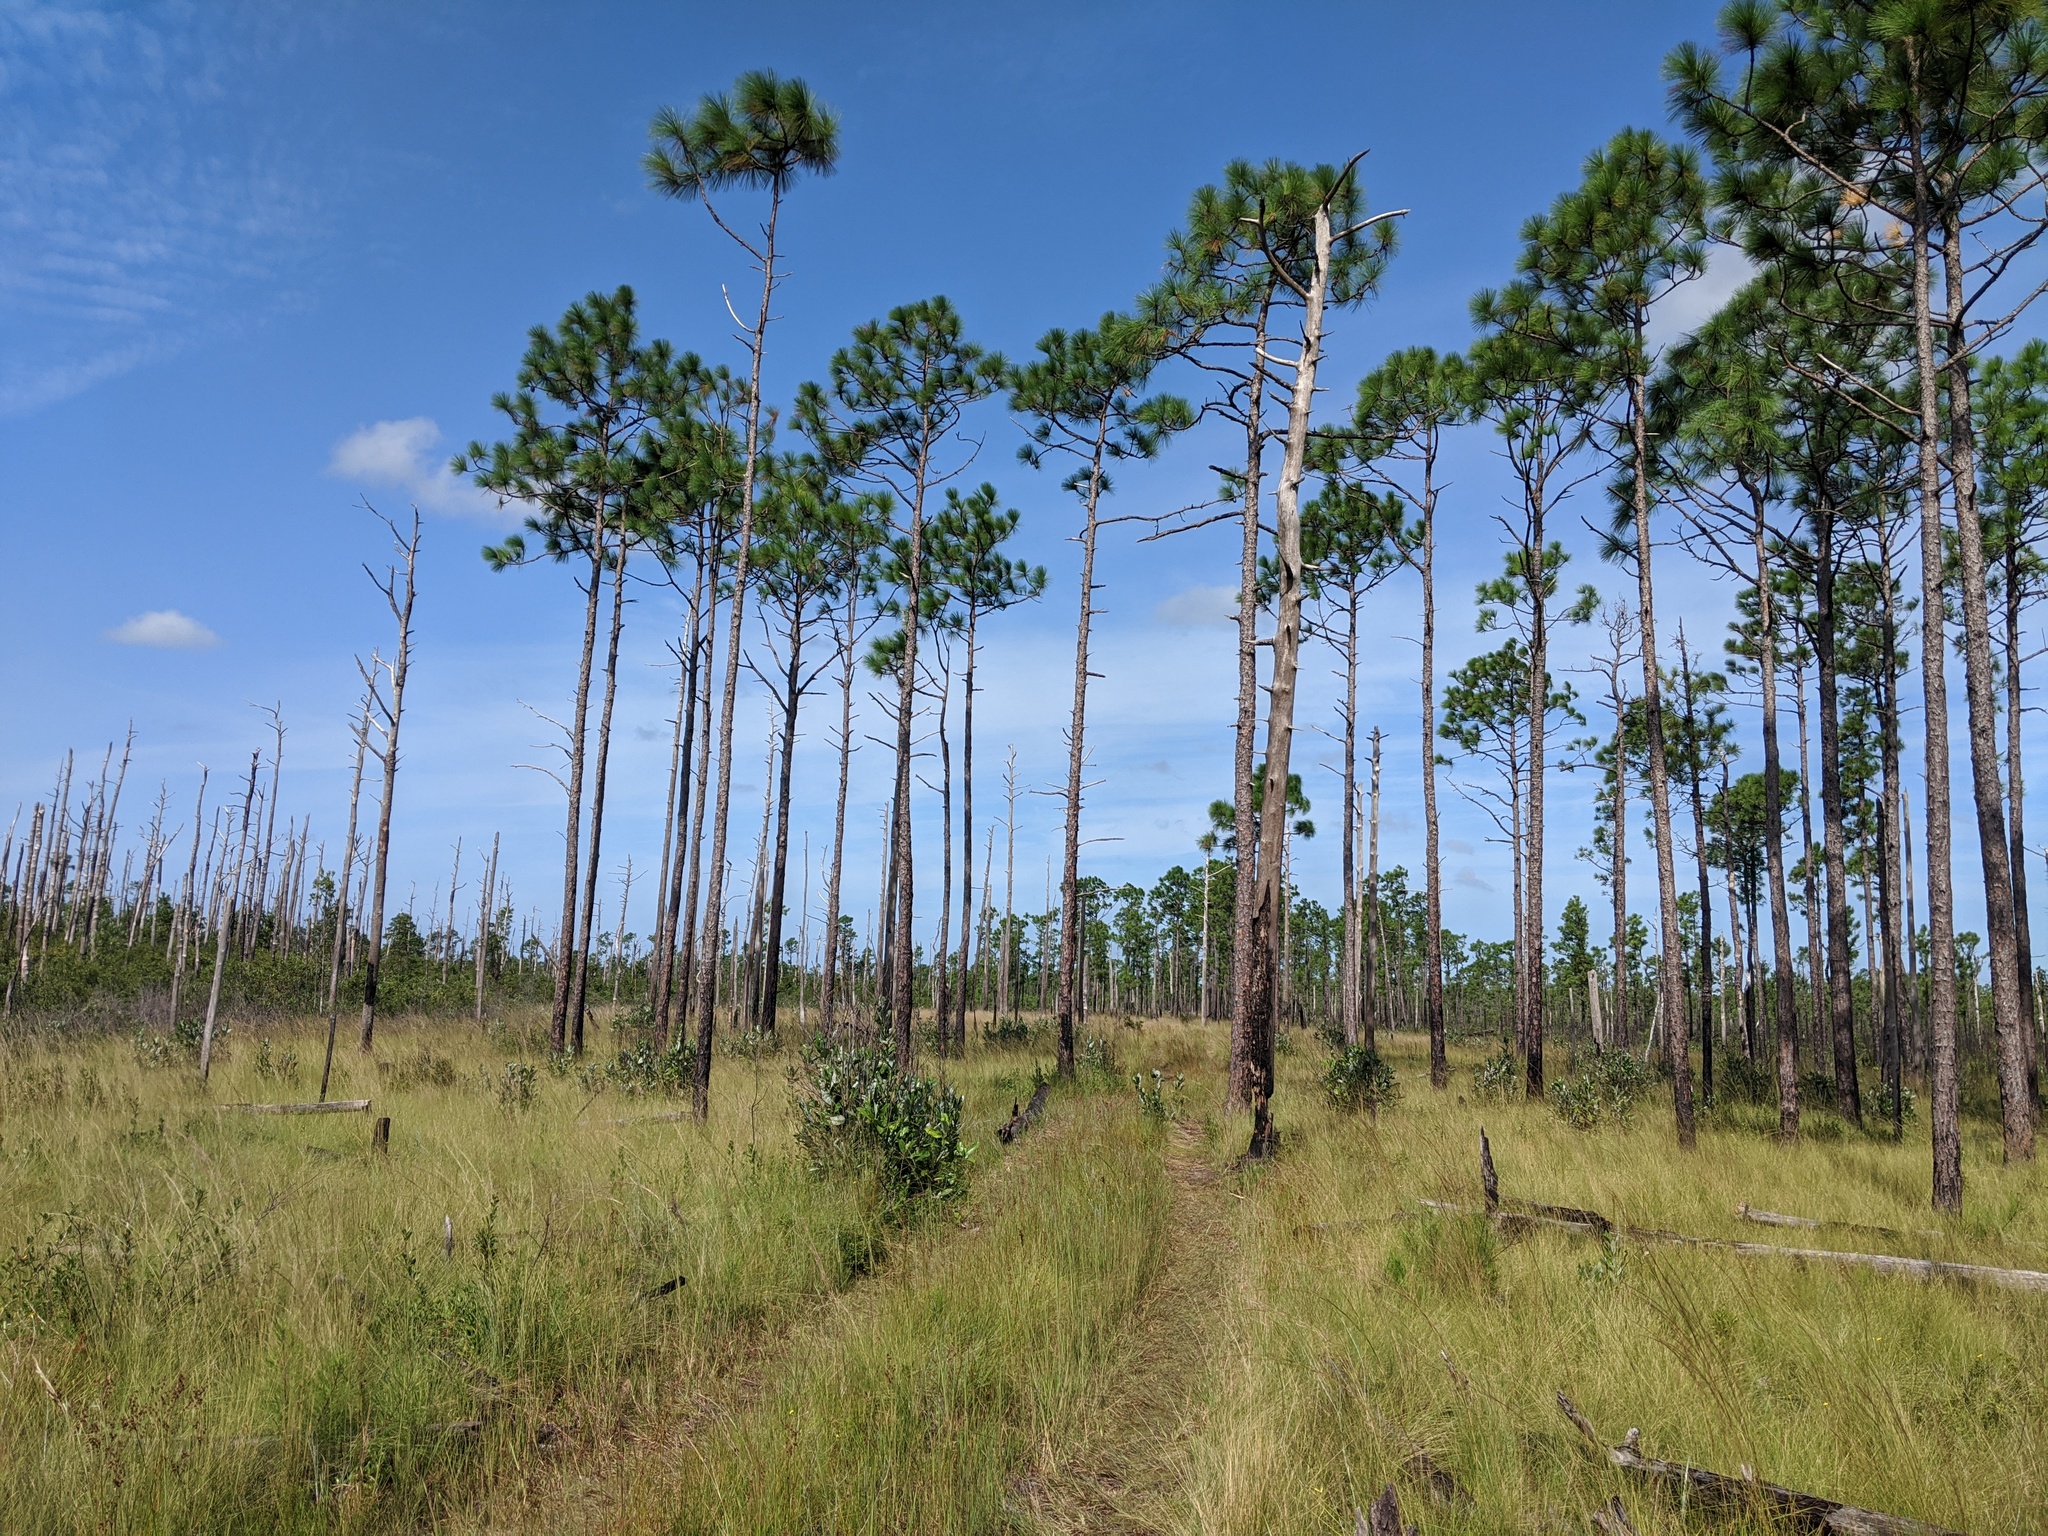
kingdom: Plantae
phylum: Tracheophyta
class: Pinopsida
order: Pinales
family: Pinaceae
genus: Pinus
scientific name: Pinus palustris
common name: Longleaf pine
